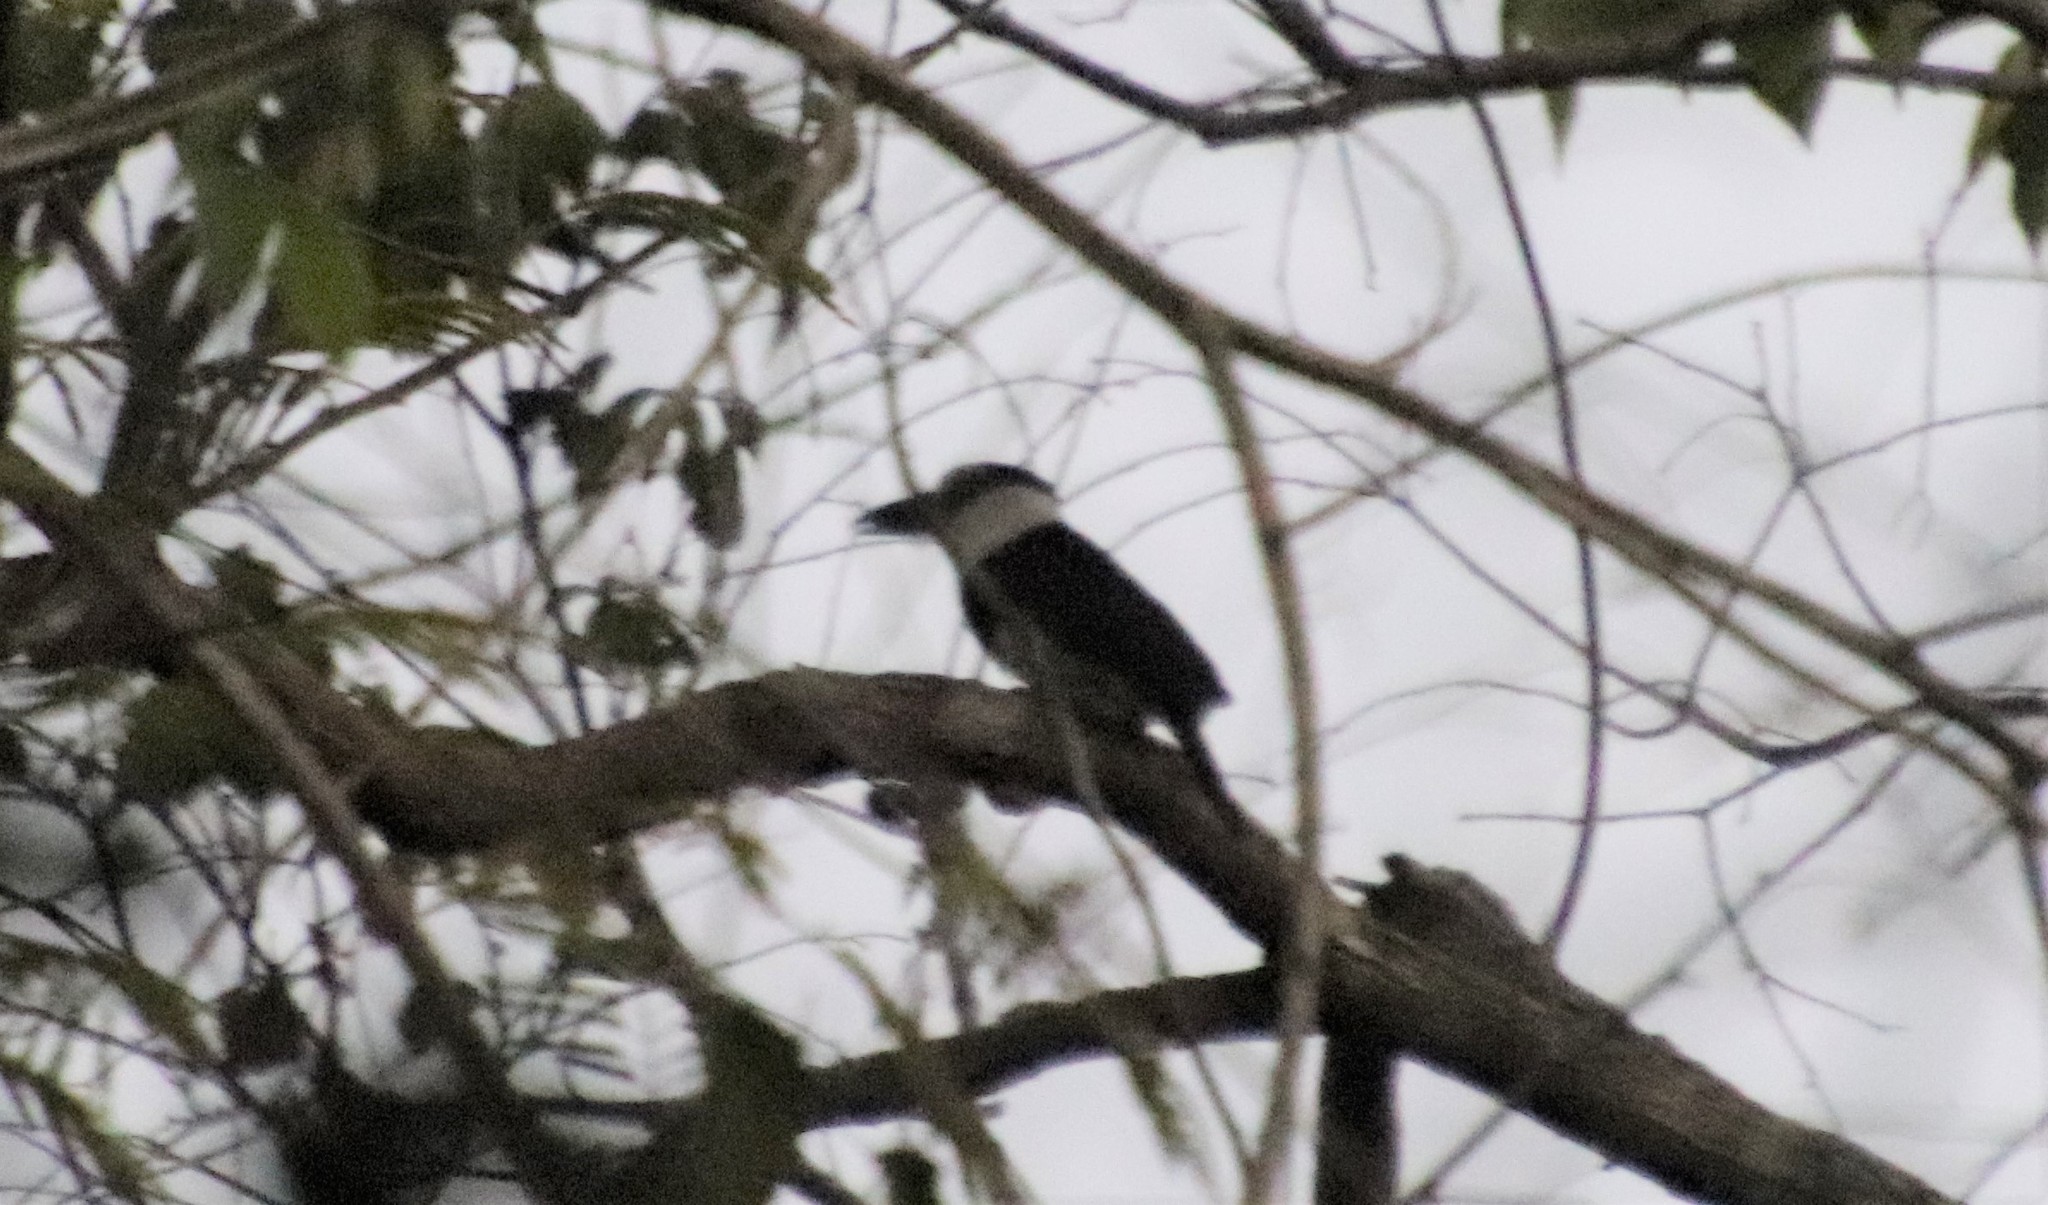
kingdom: Animalia
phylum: Chordata
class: Aves
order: Piciformes
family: Bucconidae
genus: Notharchus
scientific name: Notharchus hyperrhynchus
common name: White-necked puffbird
